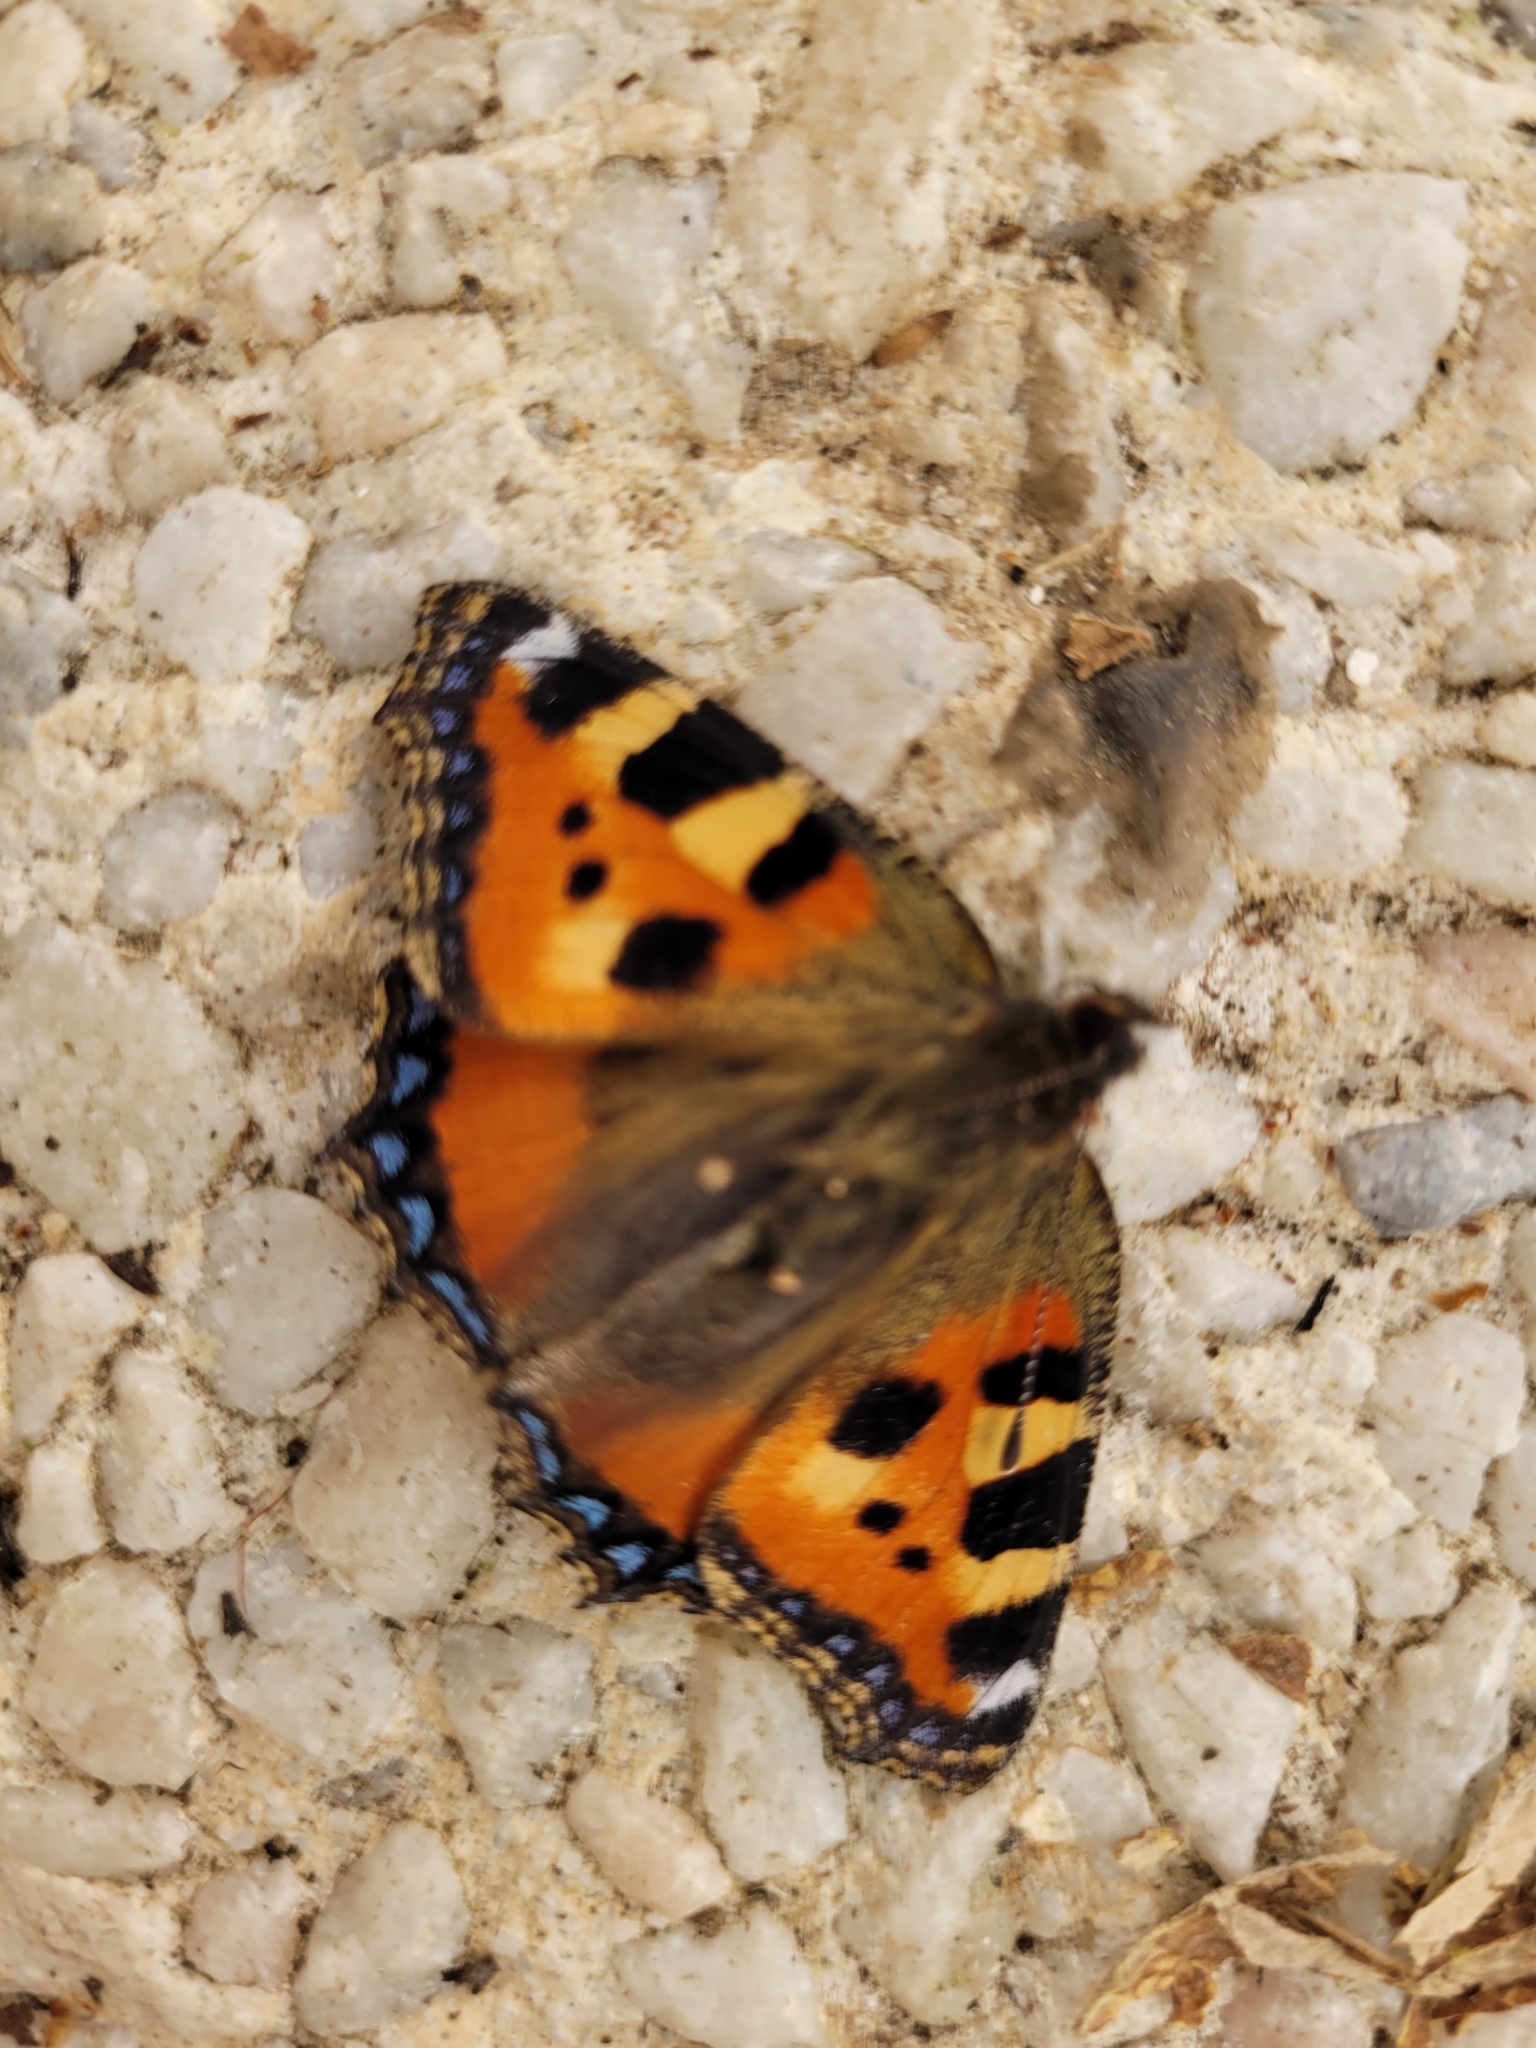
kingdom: Animalia
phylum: Arthropoda
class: Insecta
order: Lepidoptera
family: Nymphalidae
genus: Aglais
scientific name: Aglais urticae
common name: Small tortoiseshell
